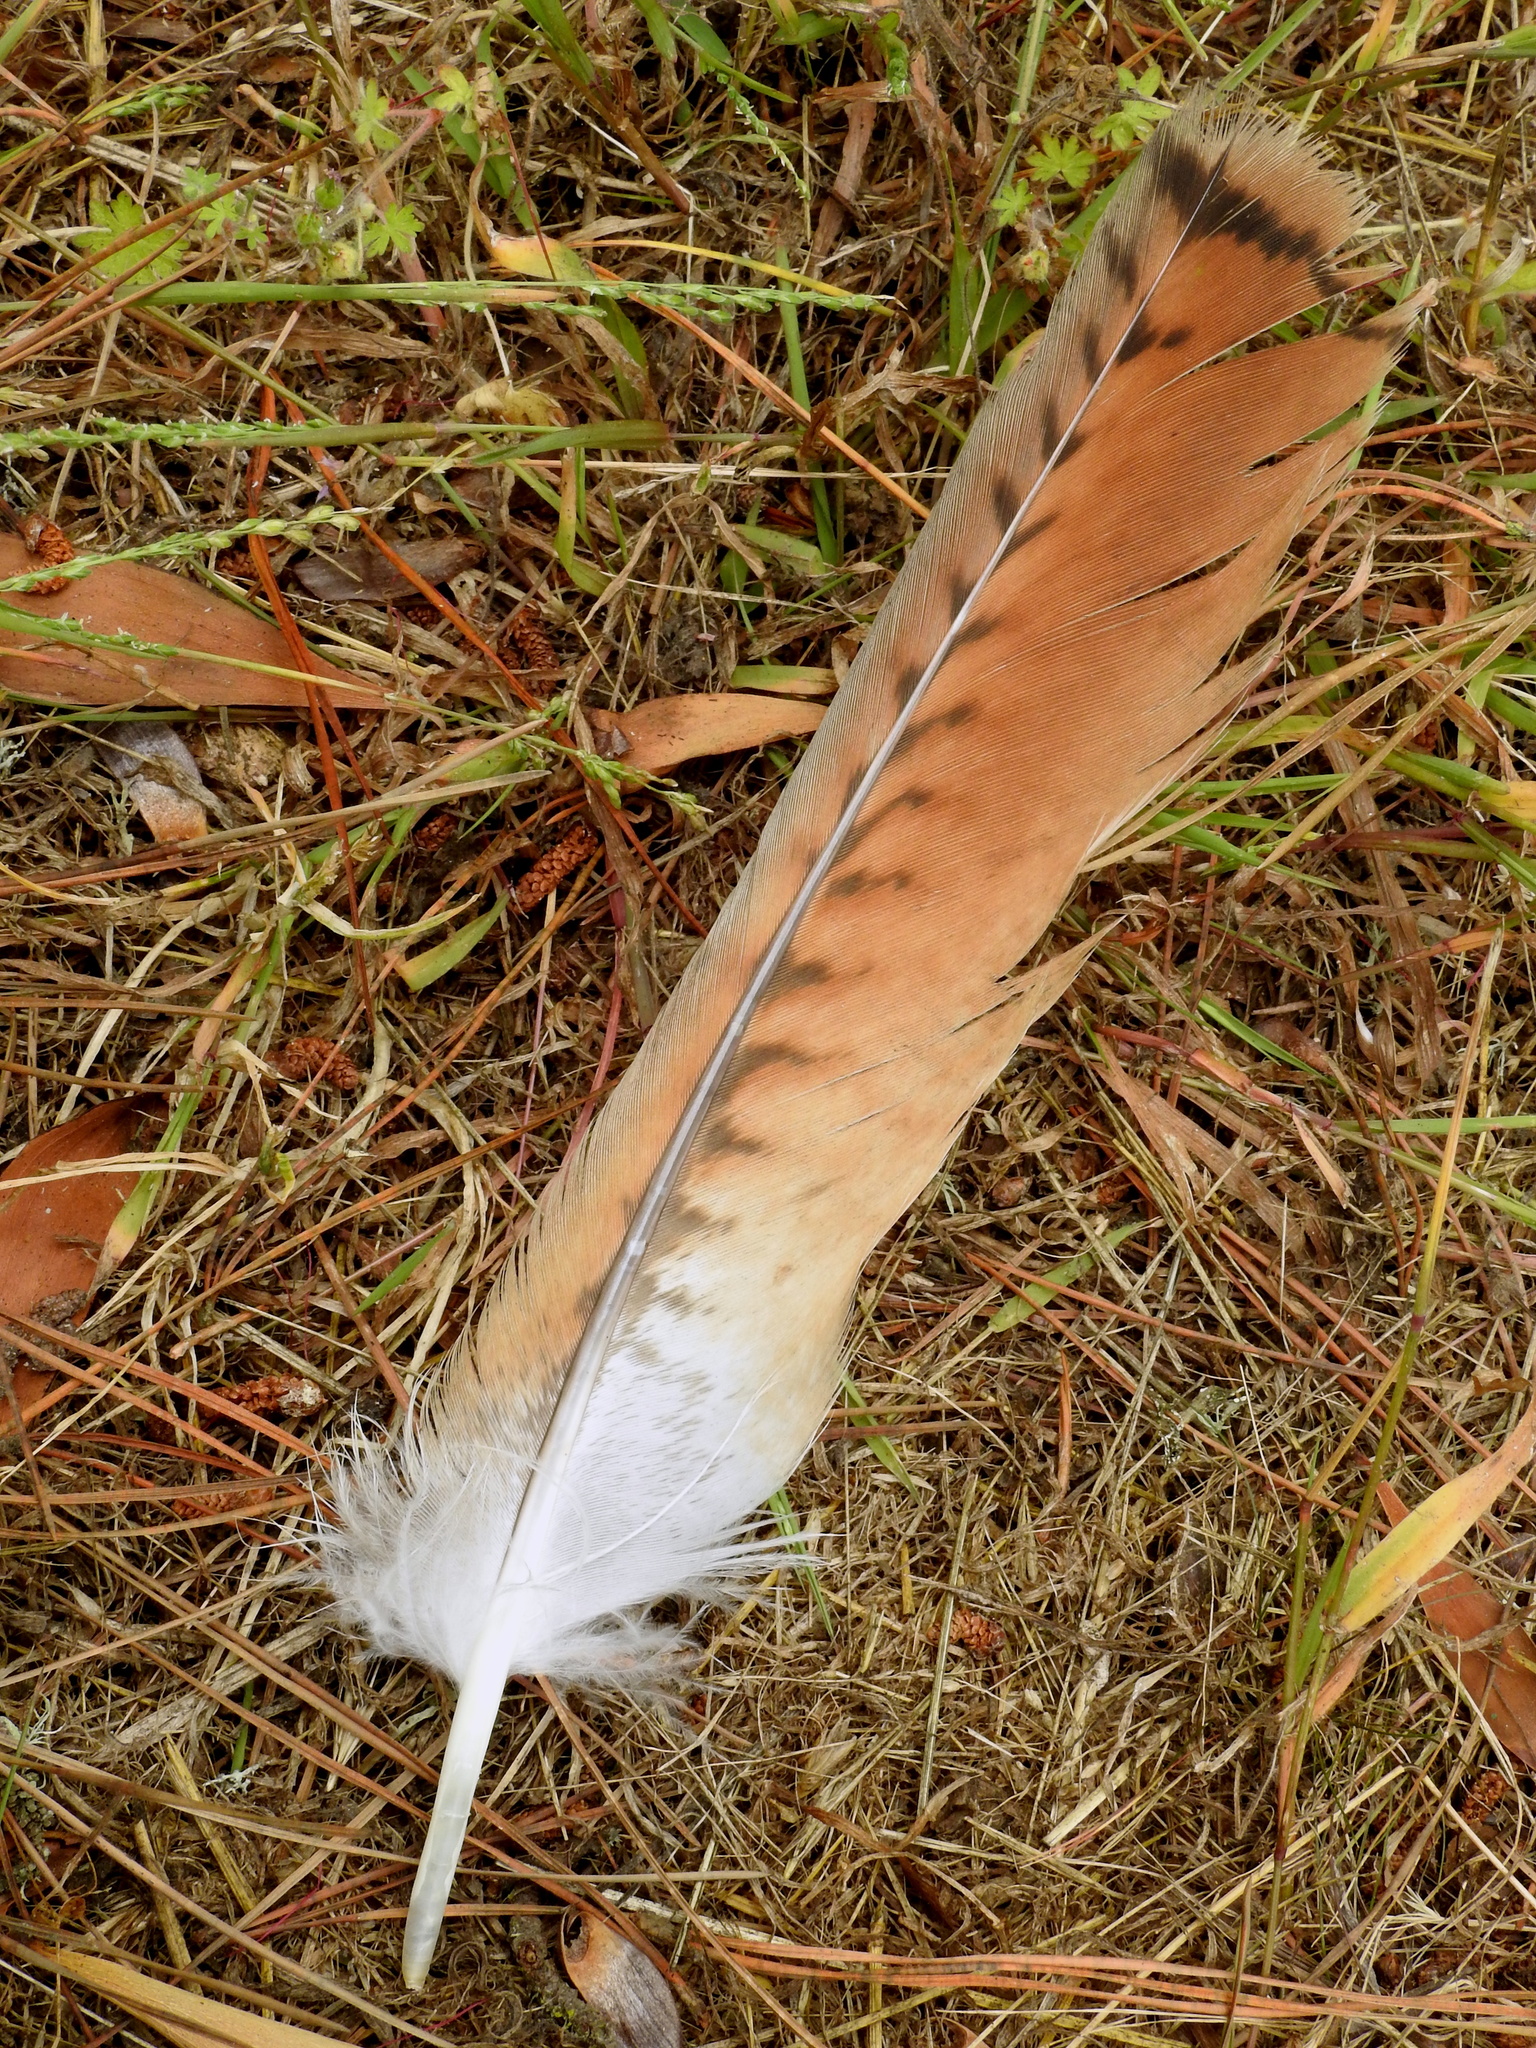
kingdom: Animalia
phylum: Chordata
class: Aves
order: Accipitriformes
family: Accipitridae
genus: Buteo
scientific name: Buteo jamaicensis
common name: Red-tailed hawk
